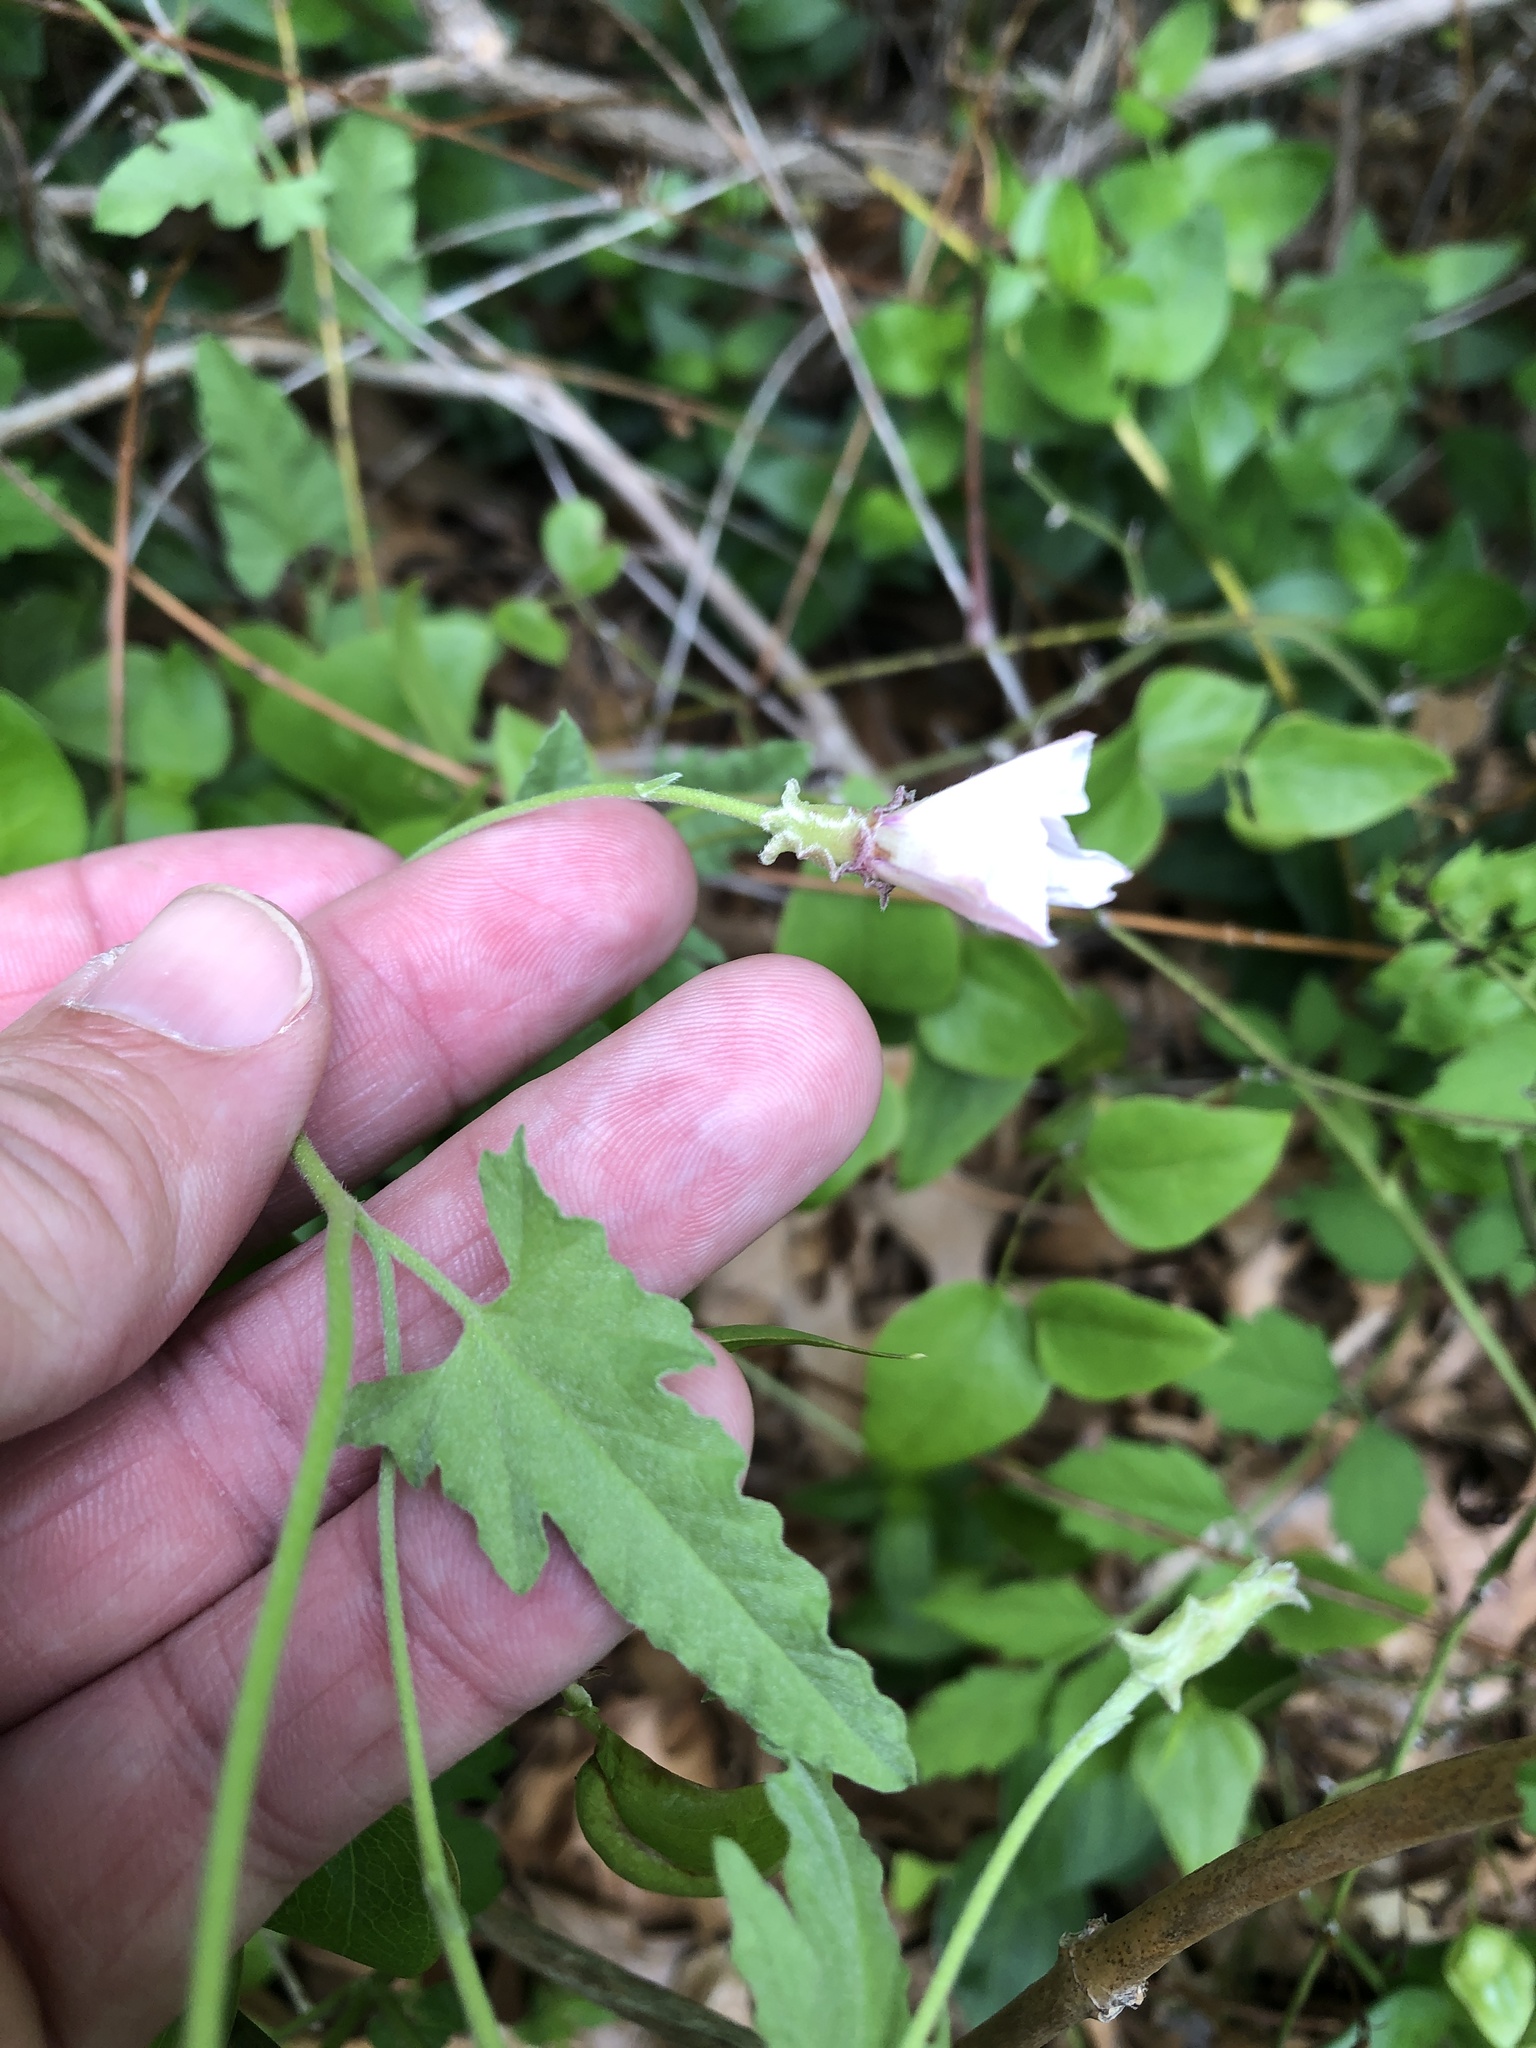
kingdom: Plantae
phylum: Tracheophyta
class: Magnoliopsida
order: Solanales
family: Convolvulaceae
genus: Convolvulus
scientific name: Convolvulus equitans
